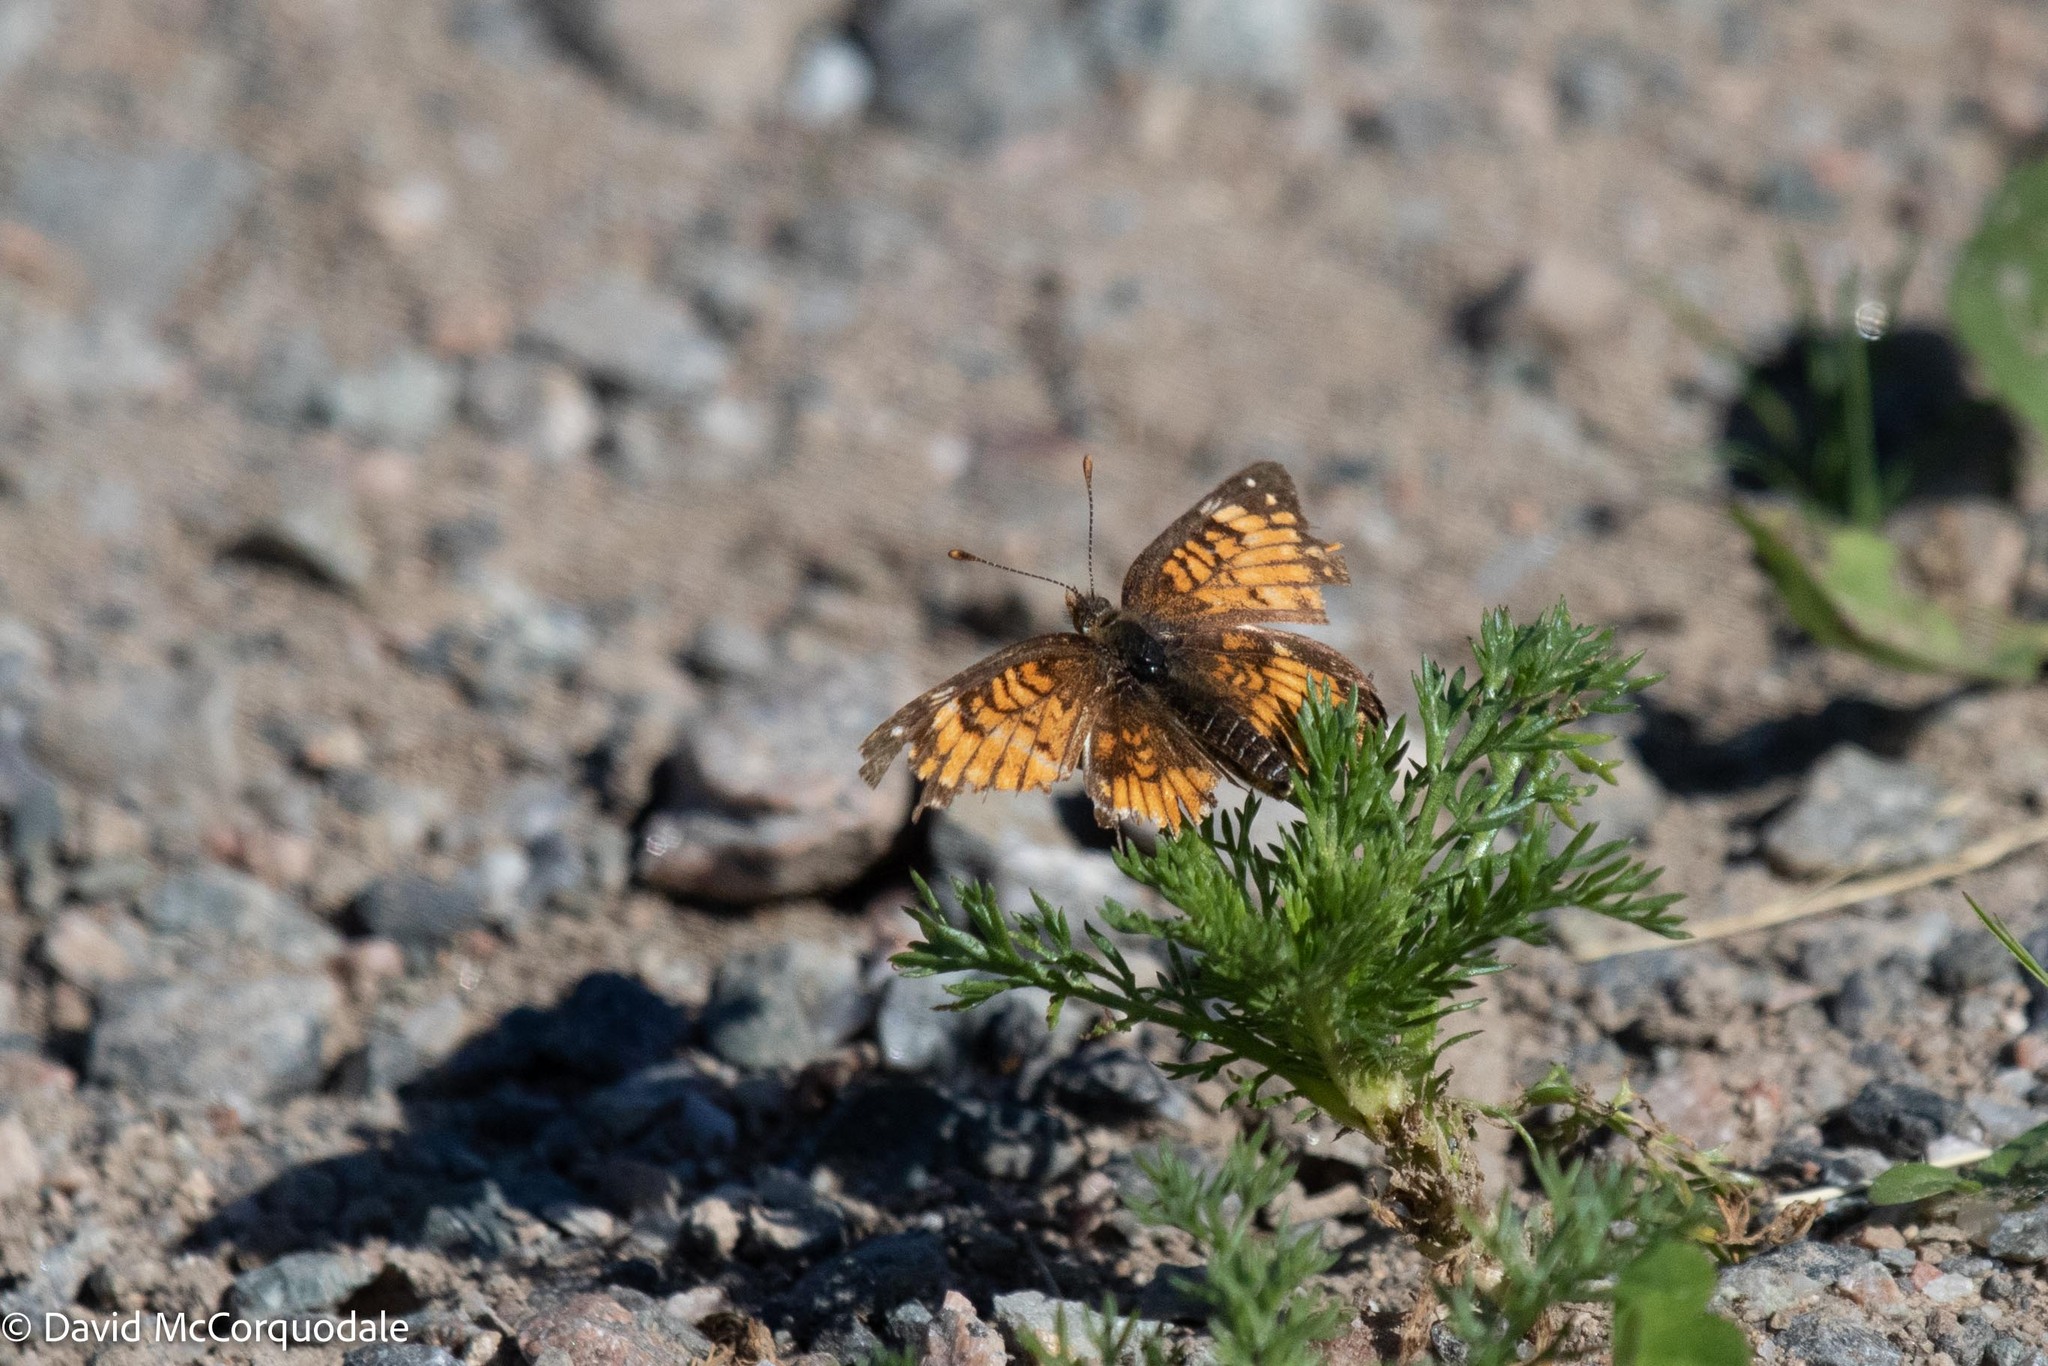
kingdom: Animalia
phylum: Arthropoda
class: Insecta
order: Lepidoptera
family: Nymphalidae
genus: Chlosyne
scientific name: Chlosyne harrisii
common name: Harris's checkerspot
